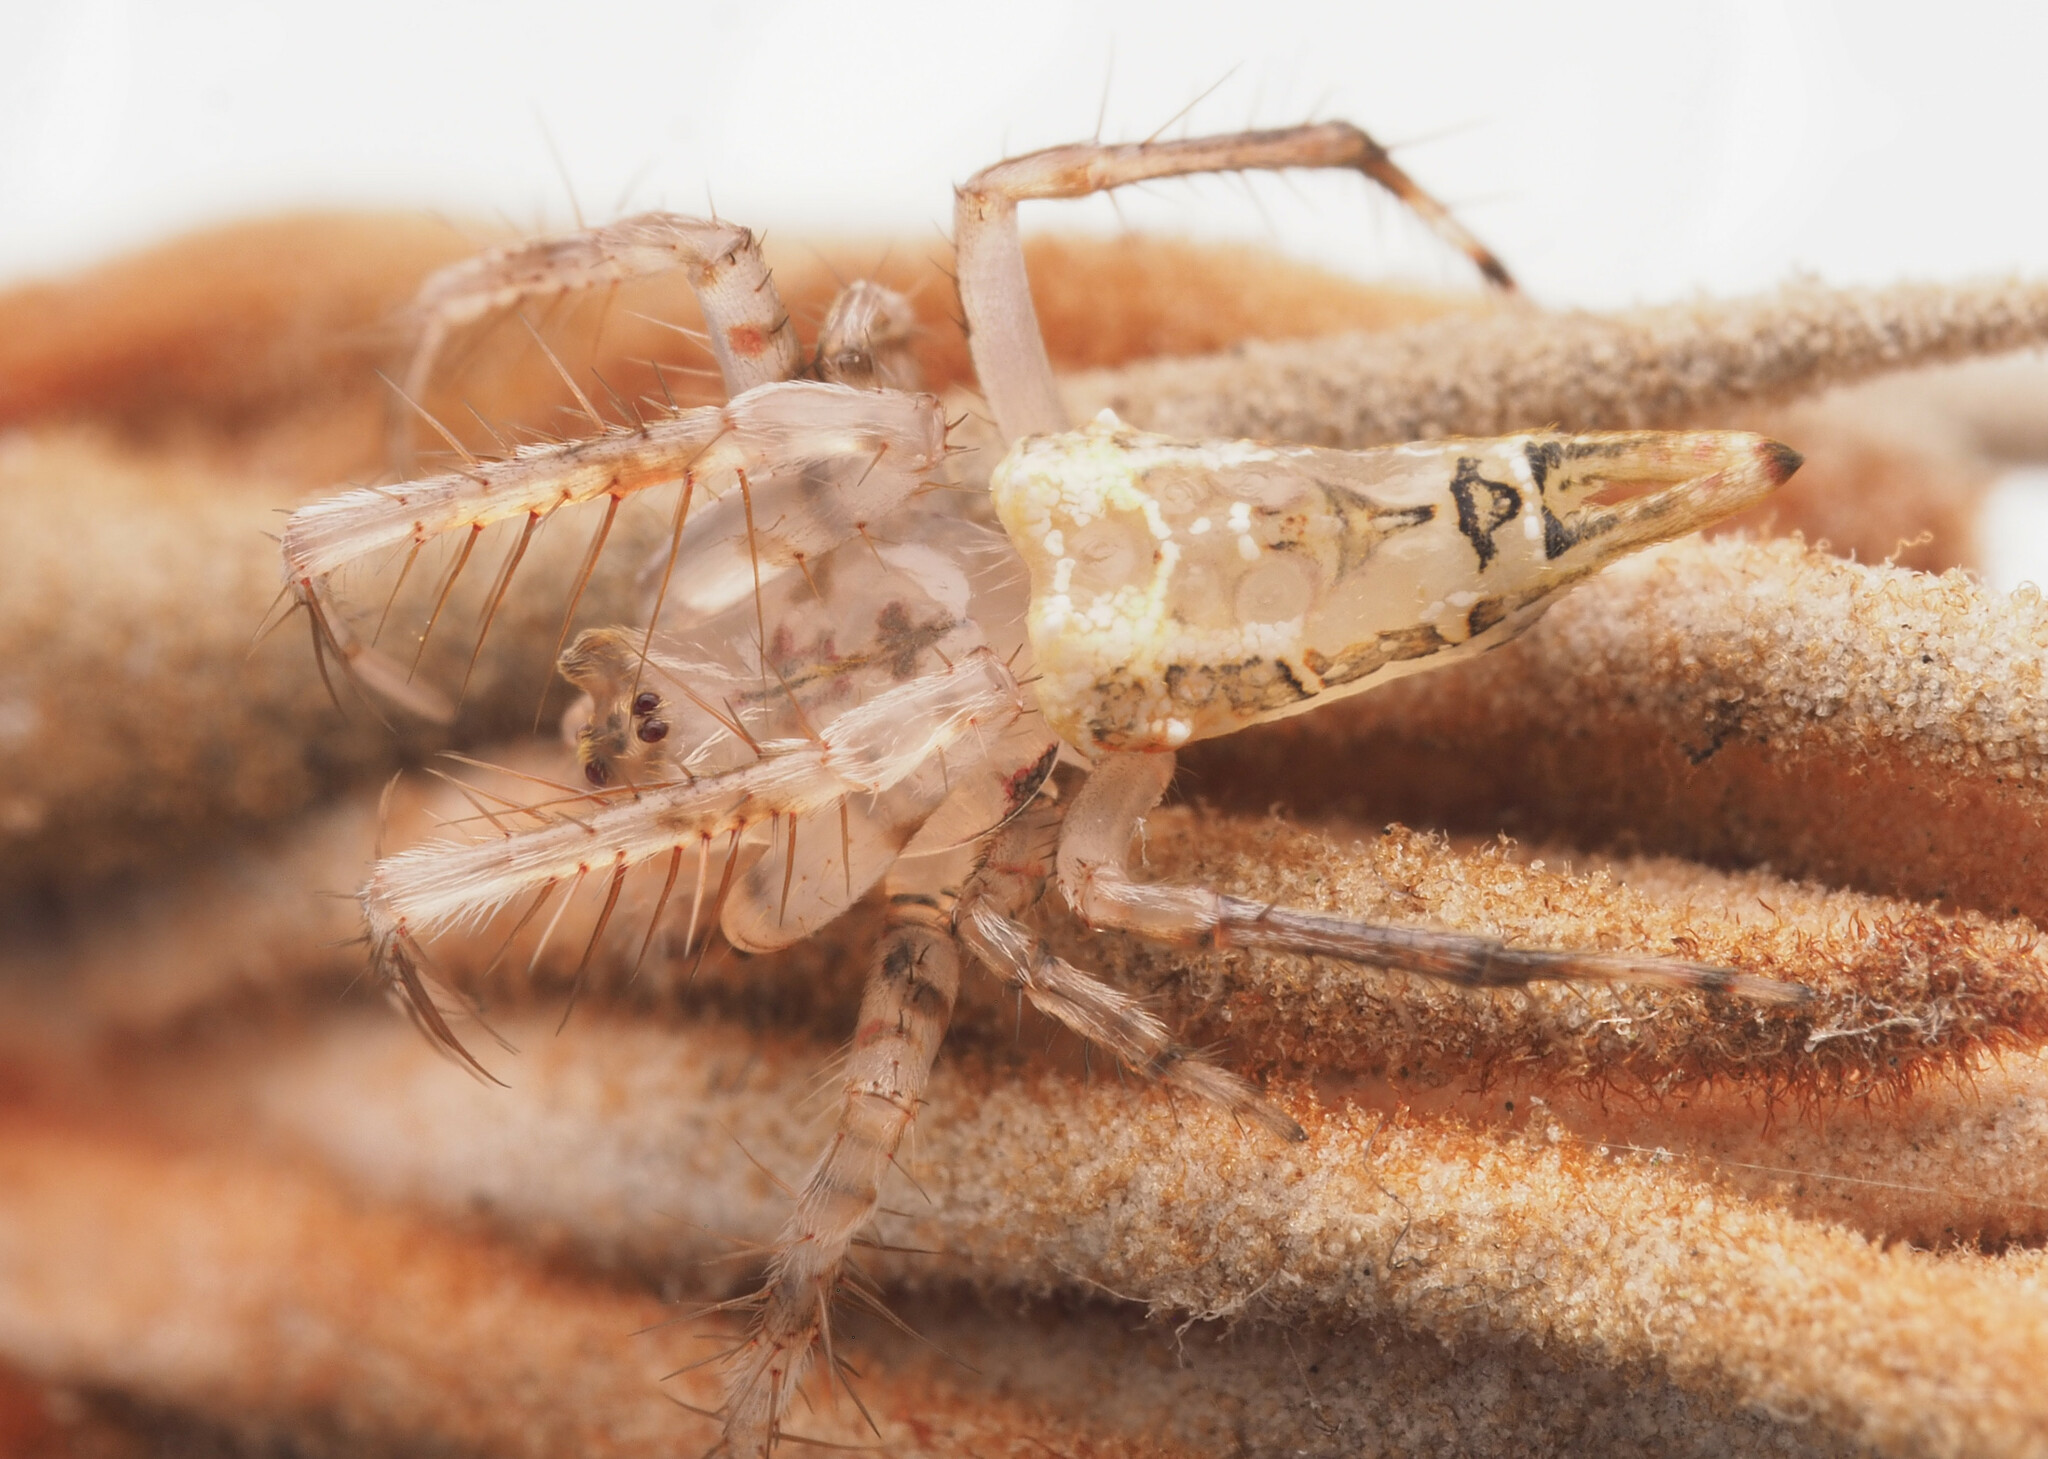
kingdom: Animalia
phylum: Arthropoda
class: Arachnida
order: Araneae
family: Arkyidae
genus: Arkys
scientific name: Arkys furcatus
